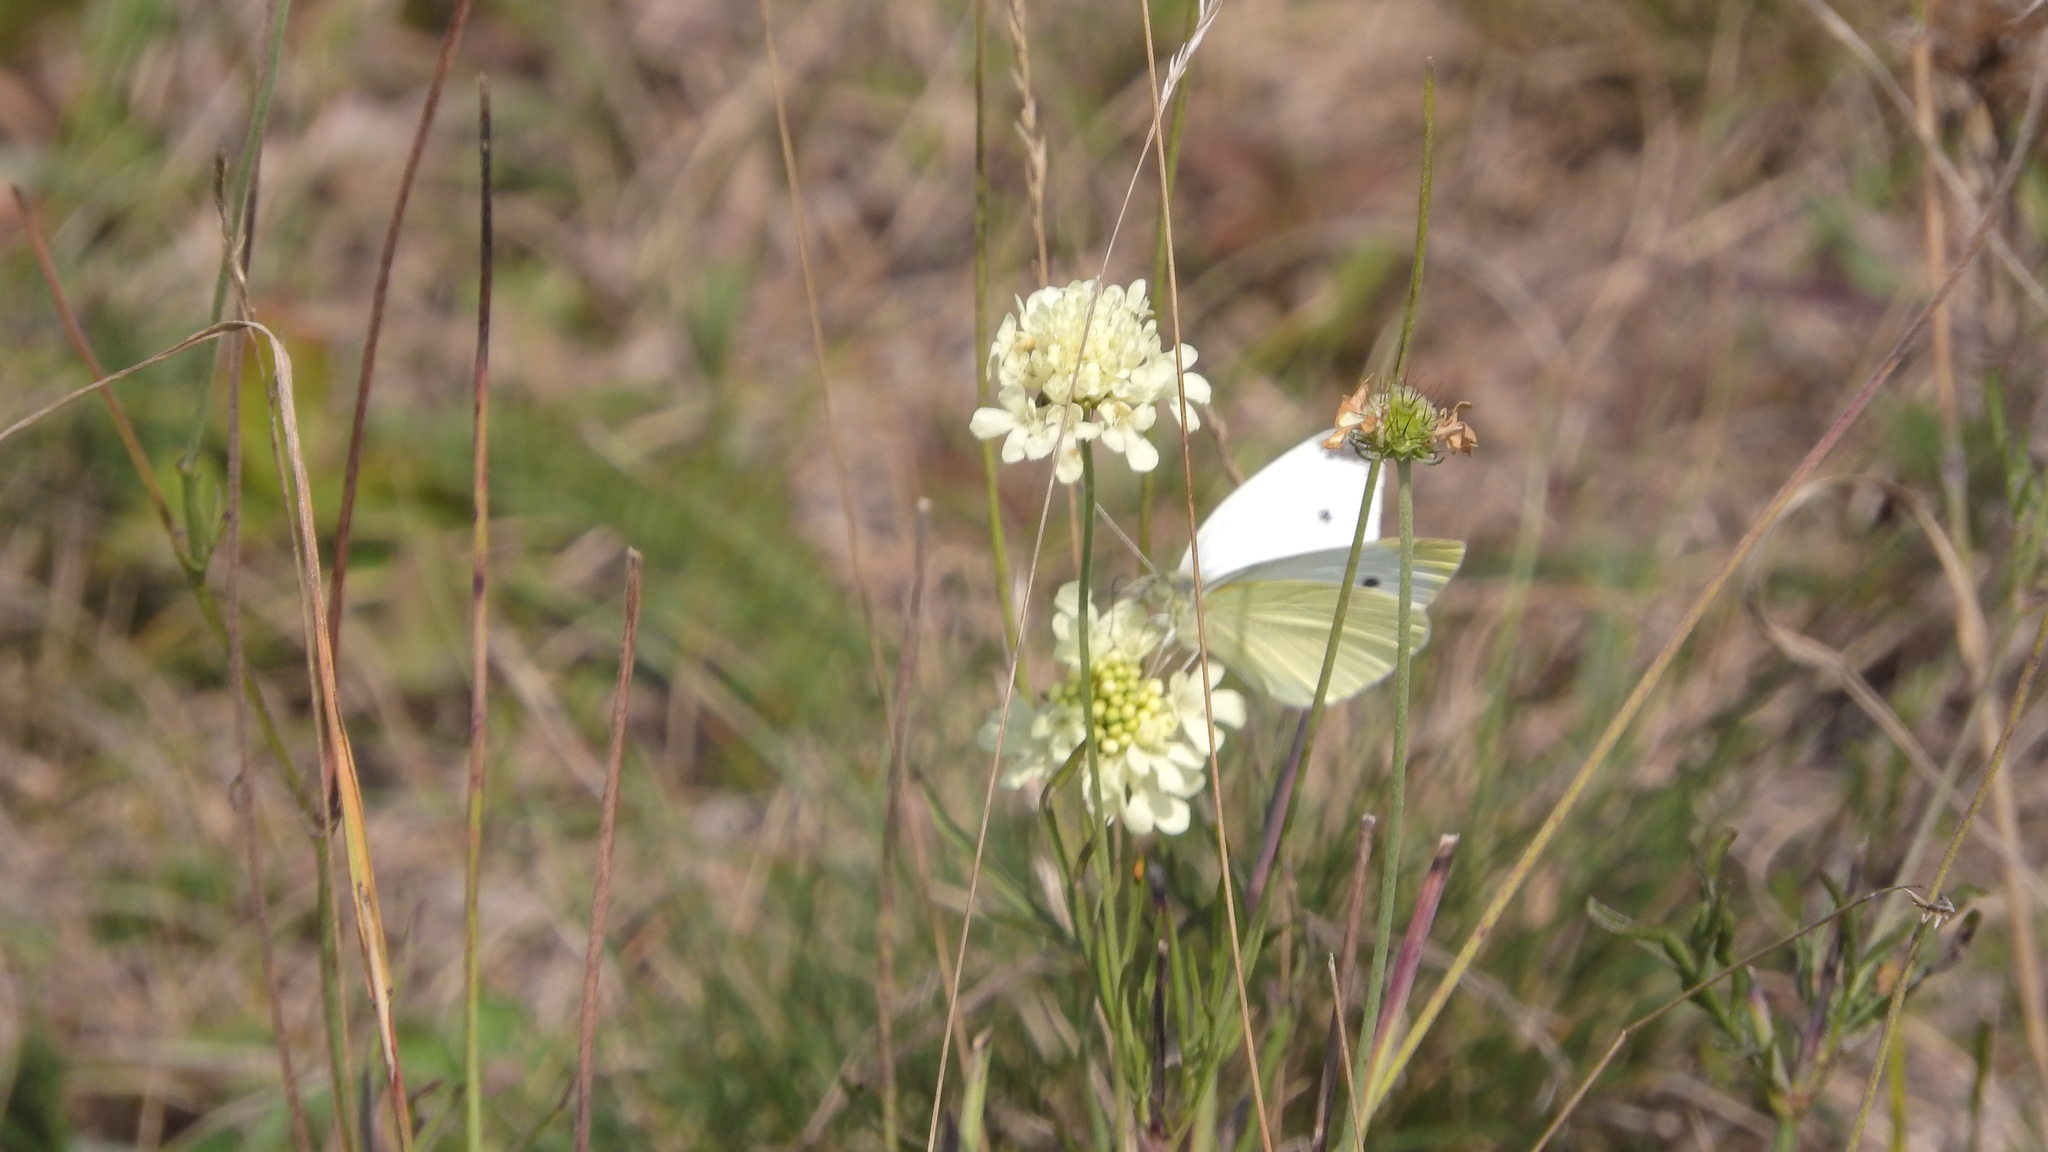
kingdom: Animalia
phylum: Arthropoda
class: Insecta
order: Lepidoptera
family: Pieridae
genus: Pieris
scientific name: Pieris rapae
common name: Small white
